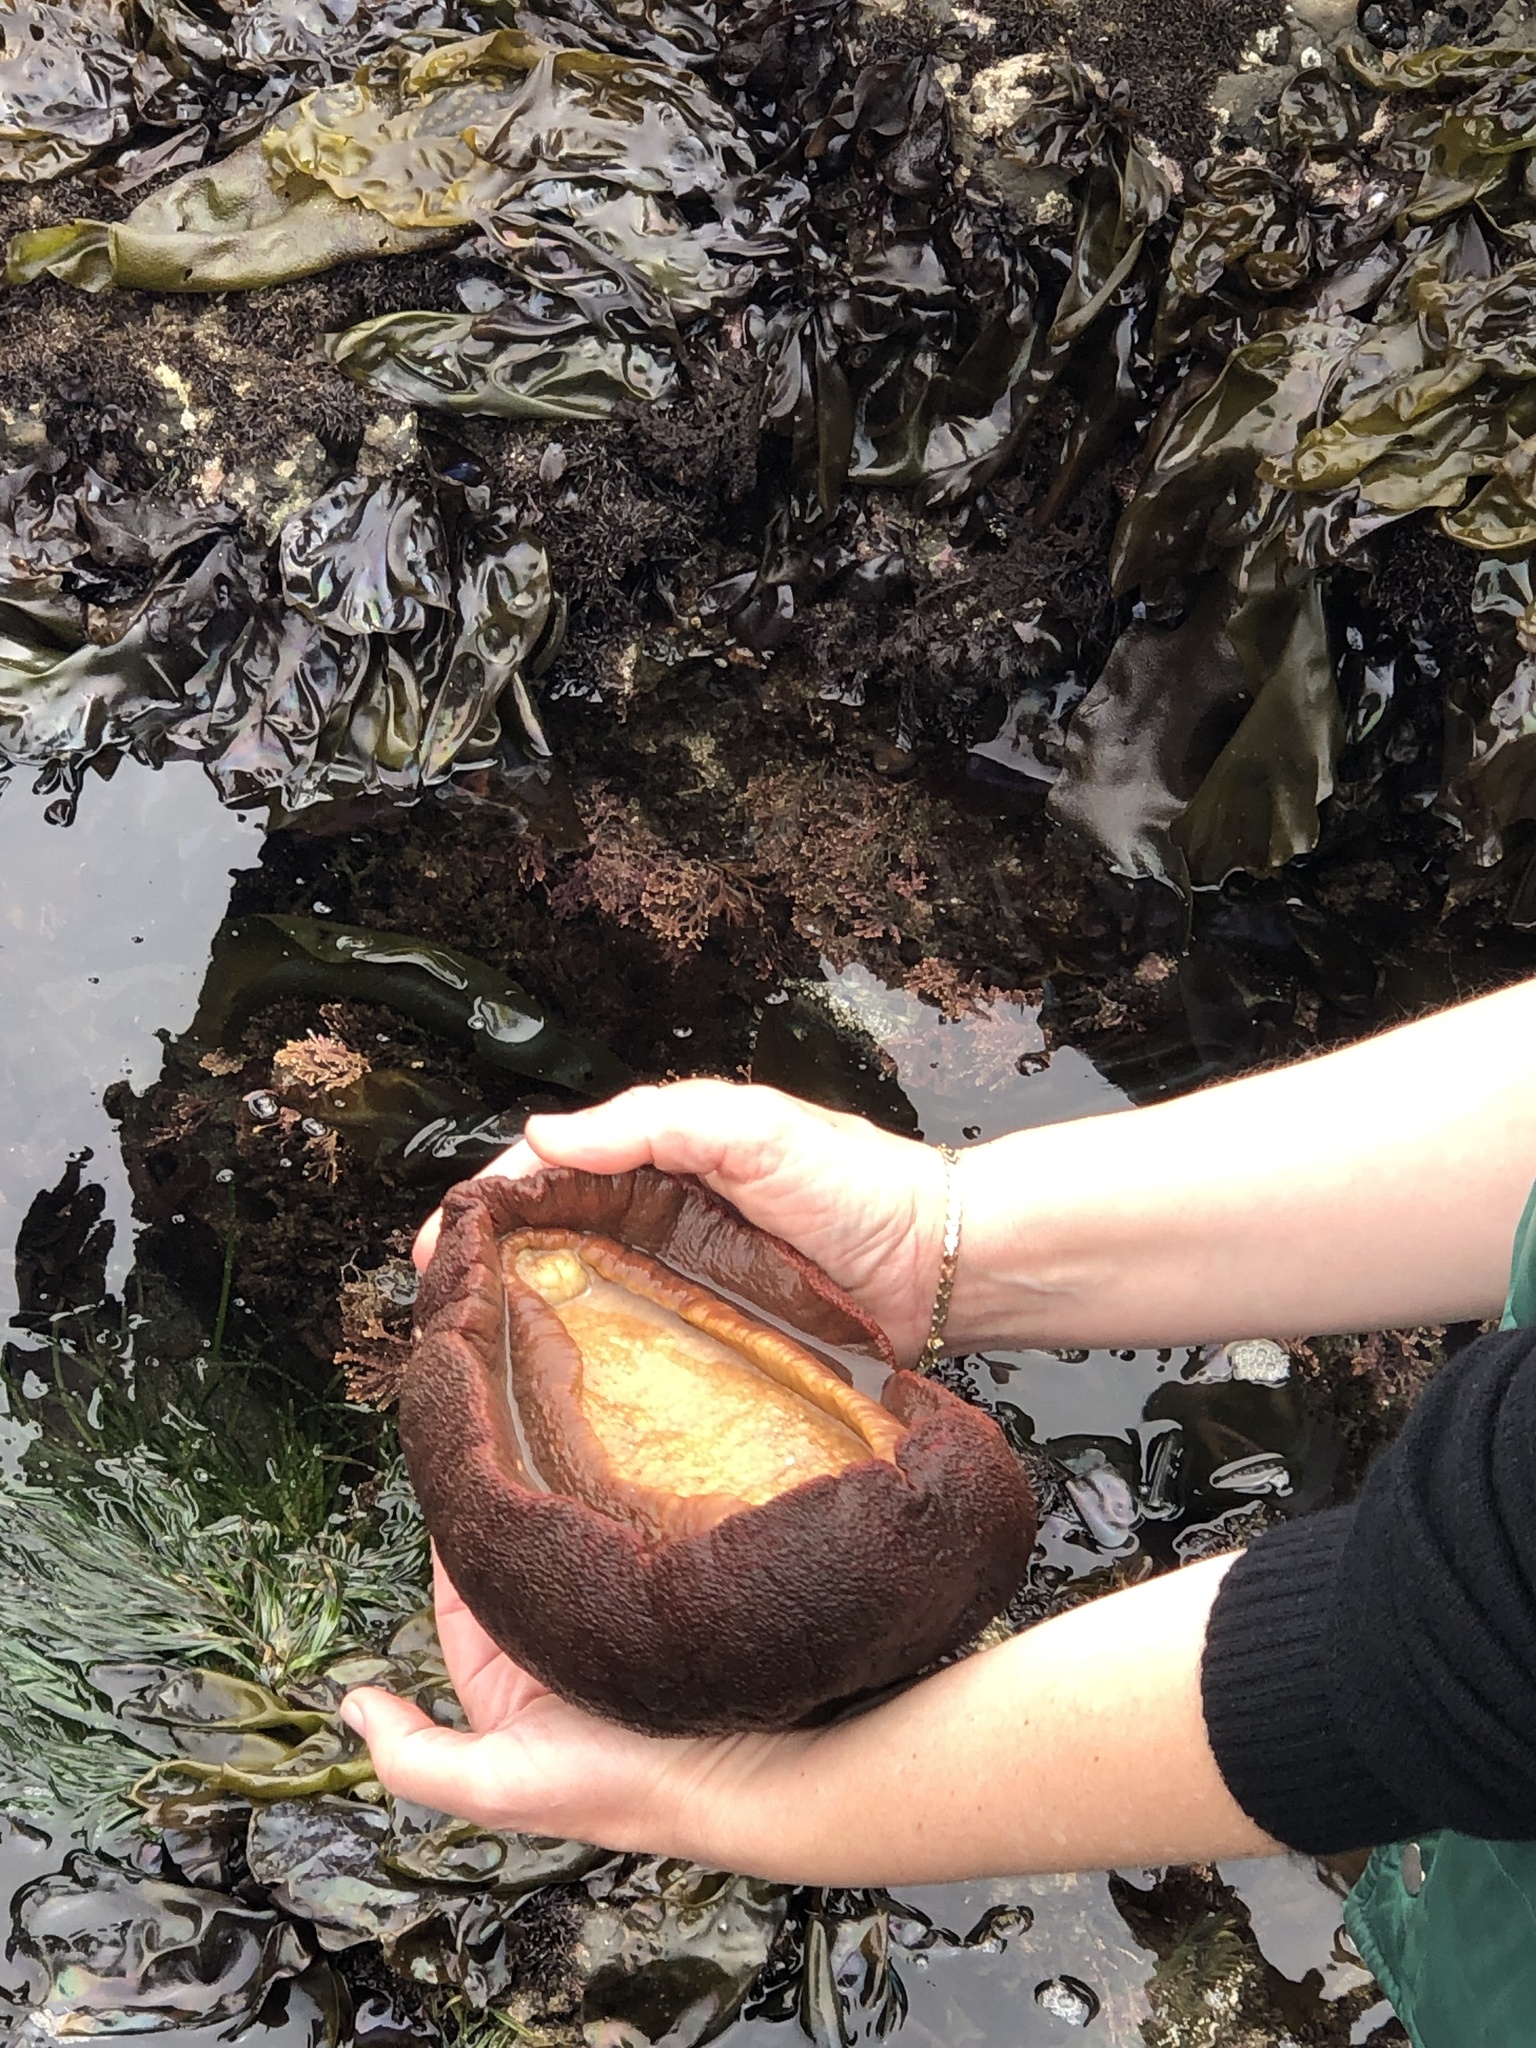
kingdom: Animalia
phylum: Mollusca
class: Polyplacophora
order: Chitonida
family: Acanthochitonidae
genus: Cryptochiton
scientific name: Cryptochiton stelleri
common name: Giant pacific chiton
